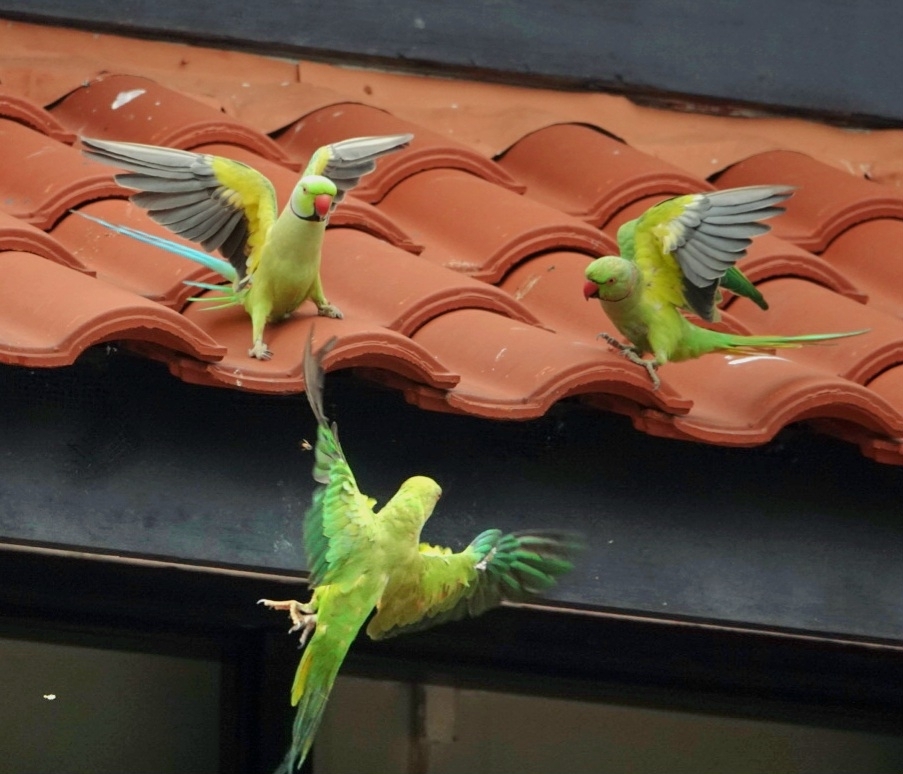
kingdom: Animalia
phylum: Chordata
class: Aves
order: Psittaciformes
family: Psittacidae
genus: Psittacula
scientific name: Psittacula krameri
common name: Rose-ringed parakeet
